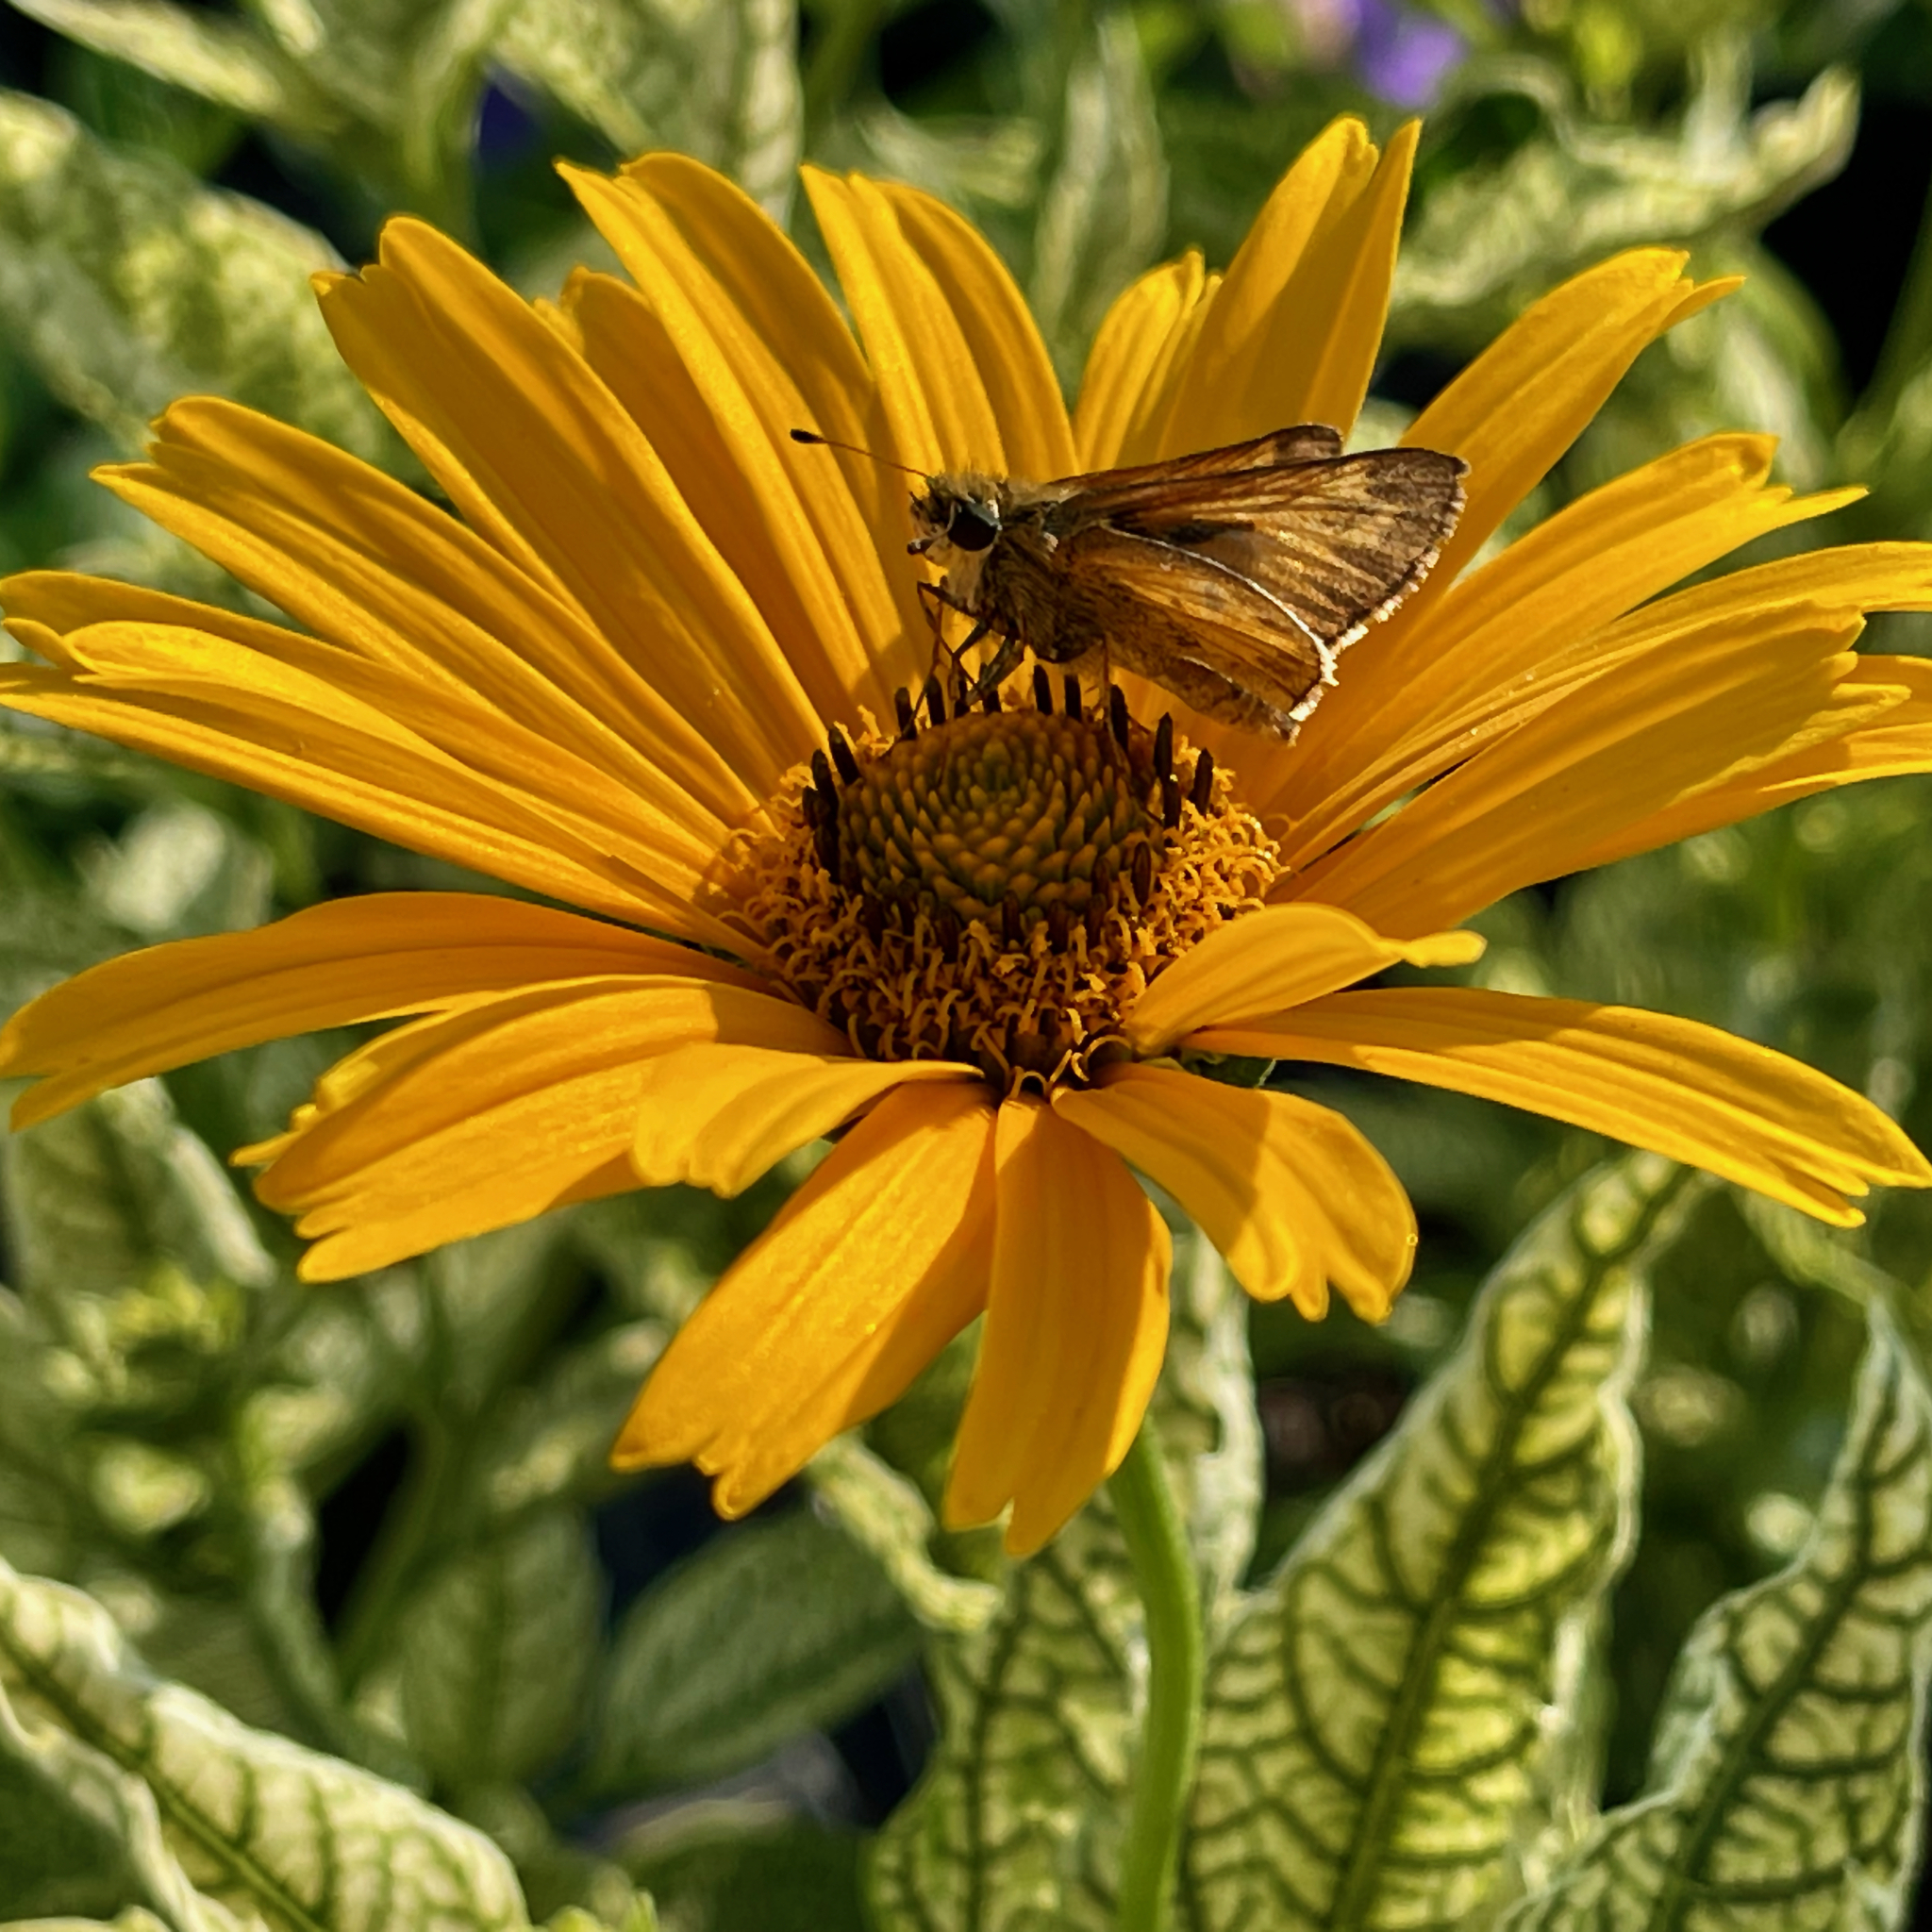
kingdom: Animalia
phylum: Arthropoda
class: Insecta
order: Lepidoptera
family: Hesperiidae
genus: Atalopedes
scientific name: Atalopedes
